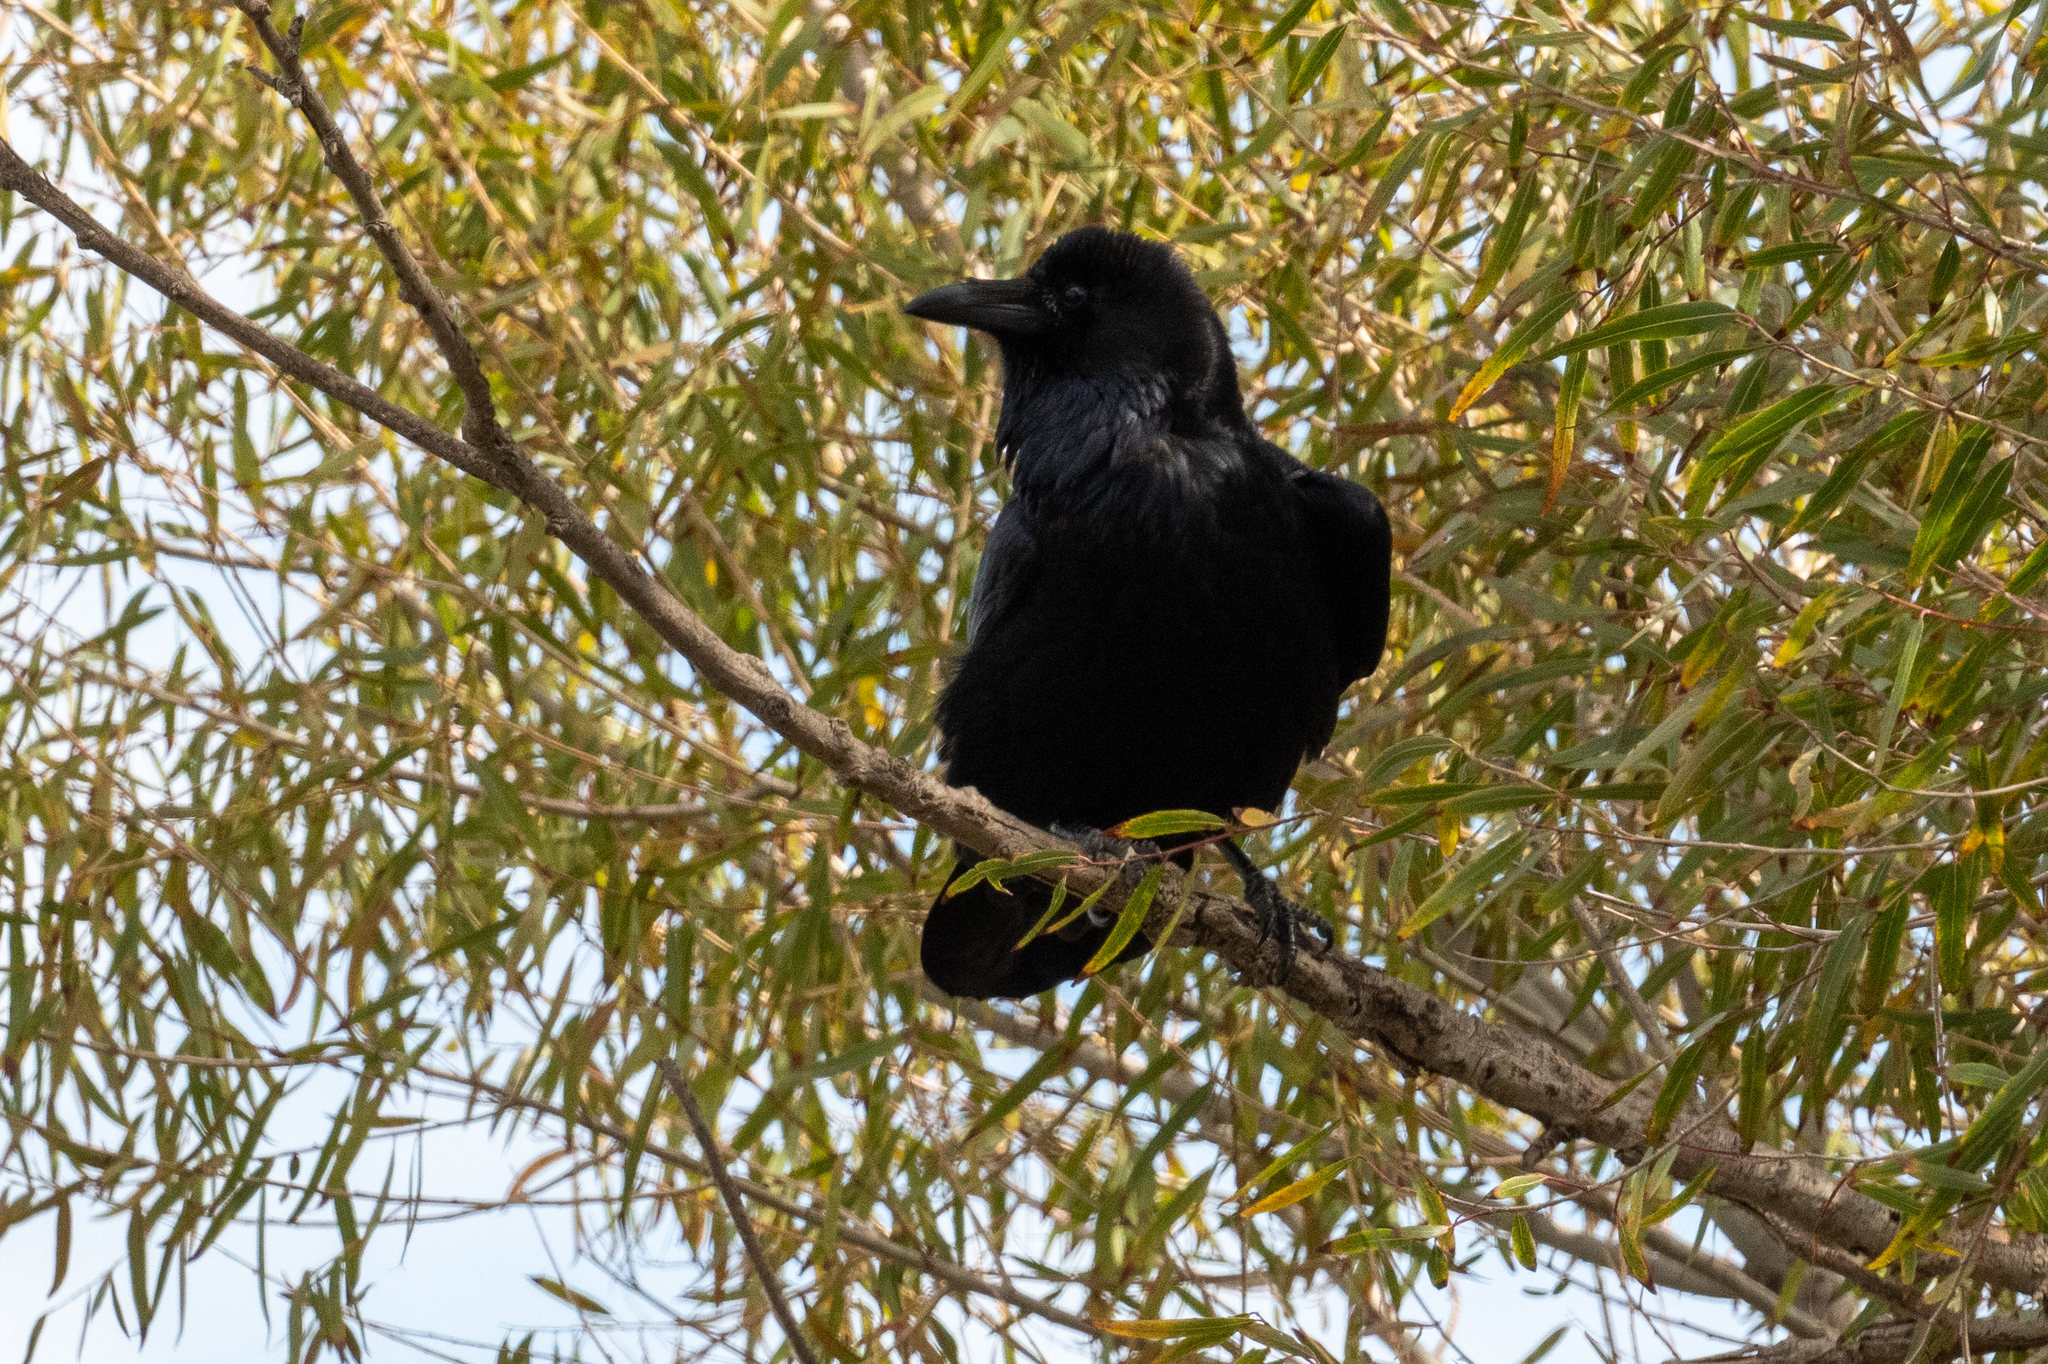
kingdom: Animalia
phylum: Chordata
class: Aves
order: Passeriformes
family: Corvidae
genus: Corvus
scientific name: Corvus corax
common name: Common raven
